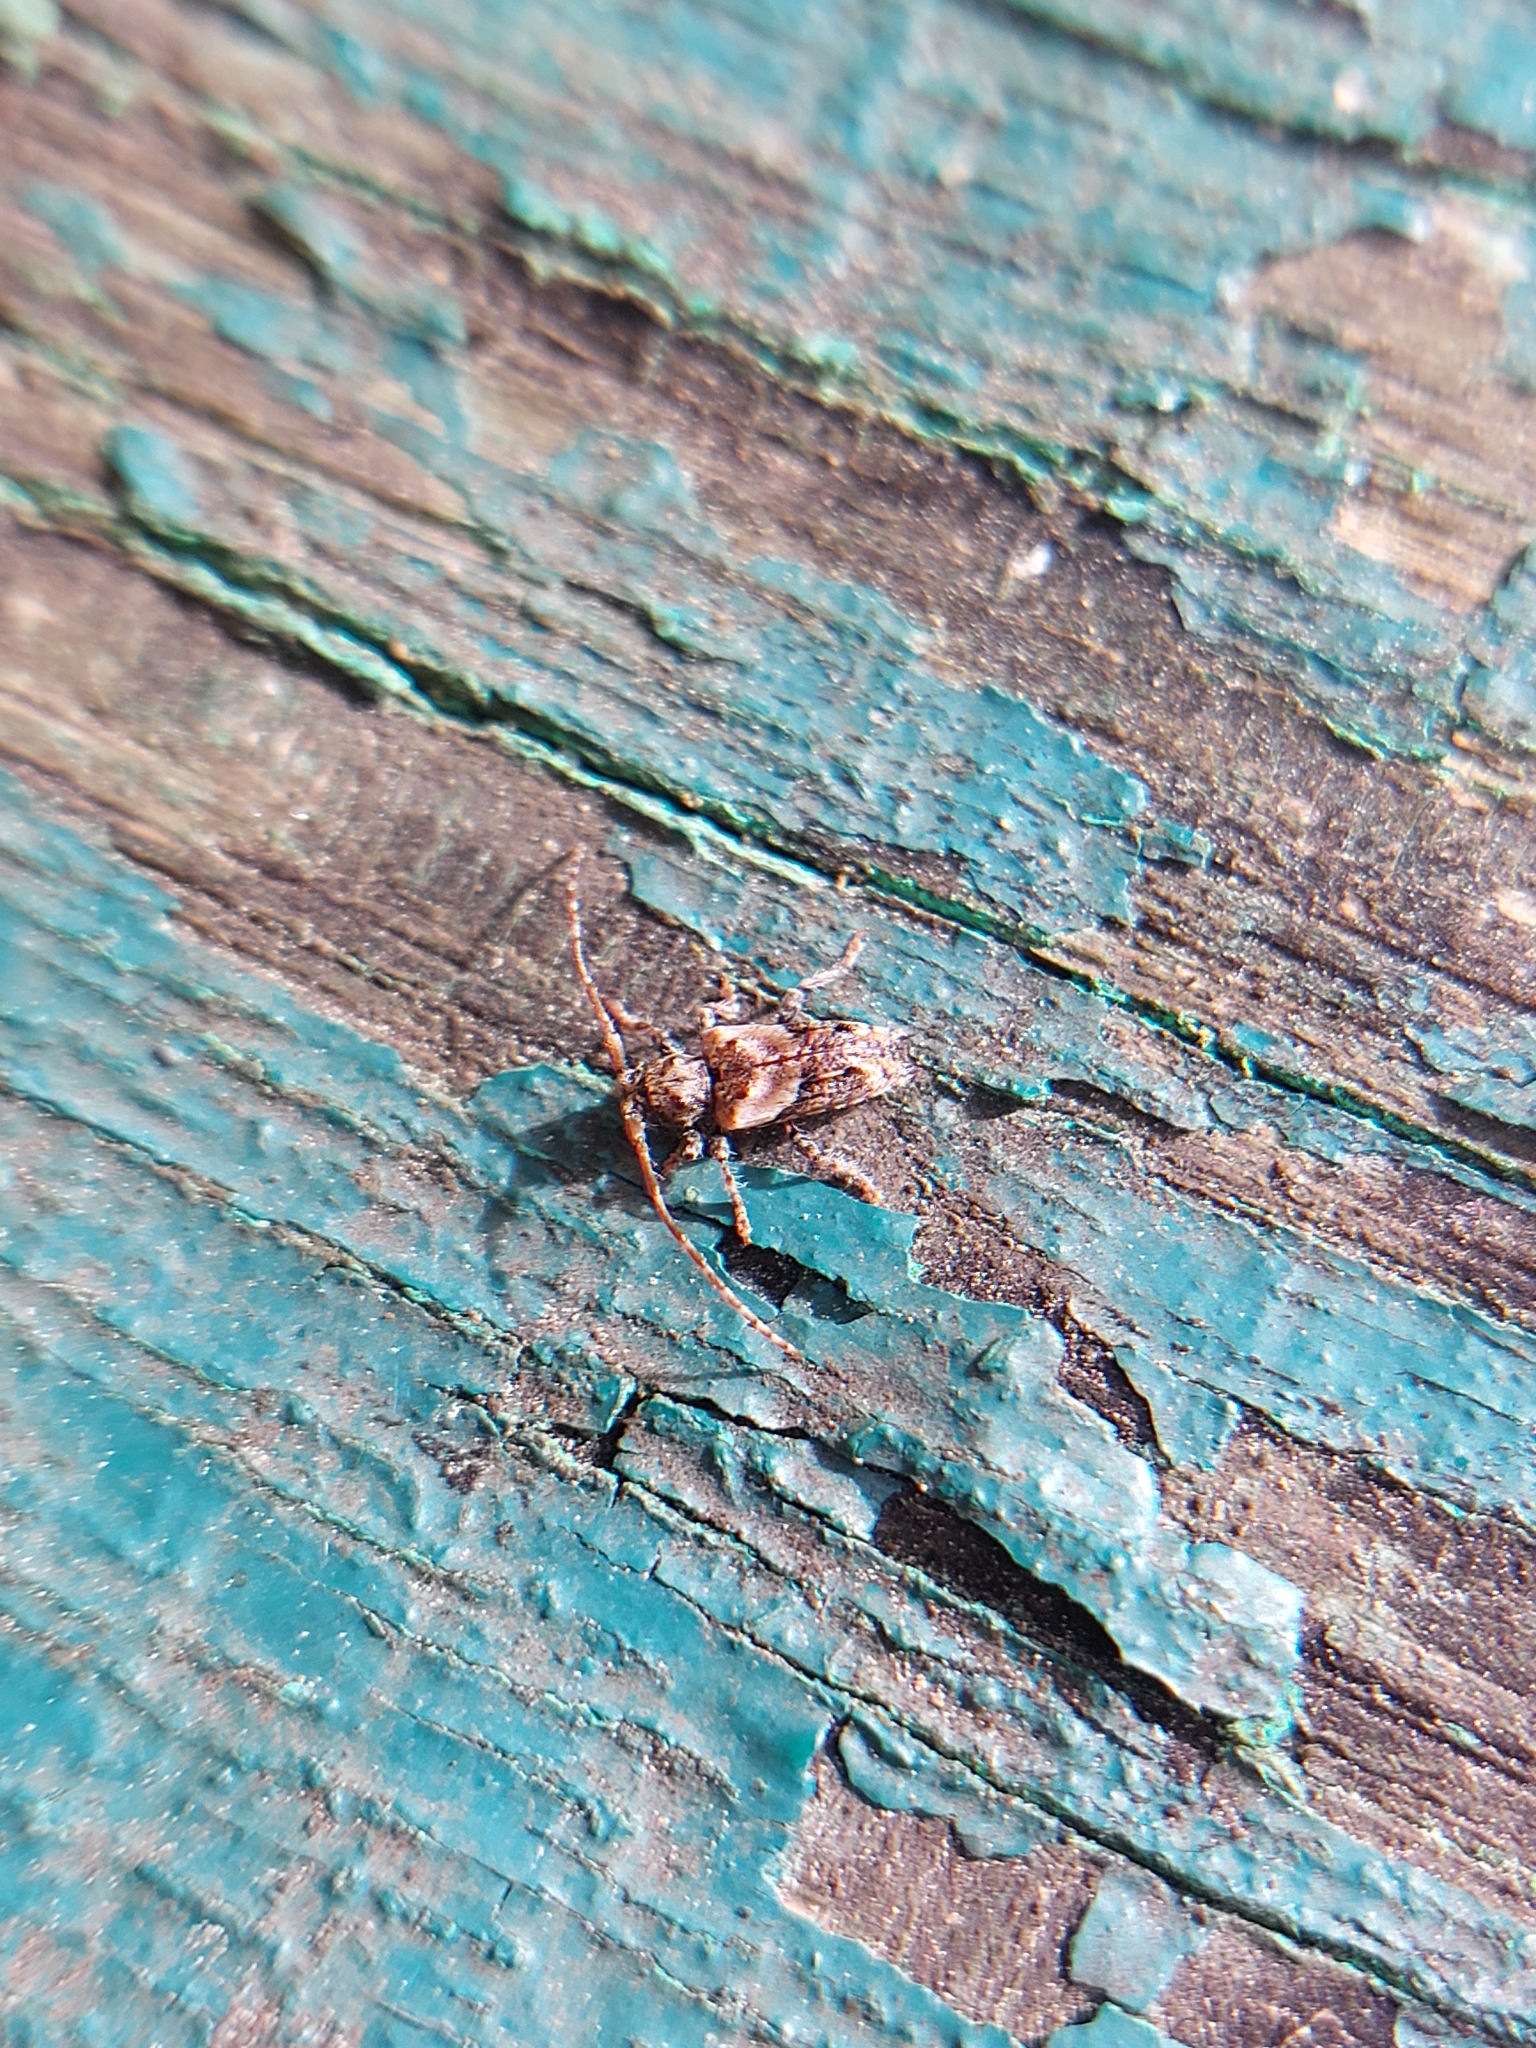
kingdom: Animalia
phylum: Arthropoda
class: Insecta
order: Coleoptera
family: Cerambycidae
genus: Pogonocherus
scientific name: Pogonocherus hispidus
